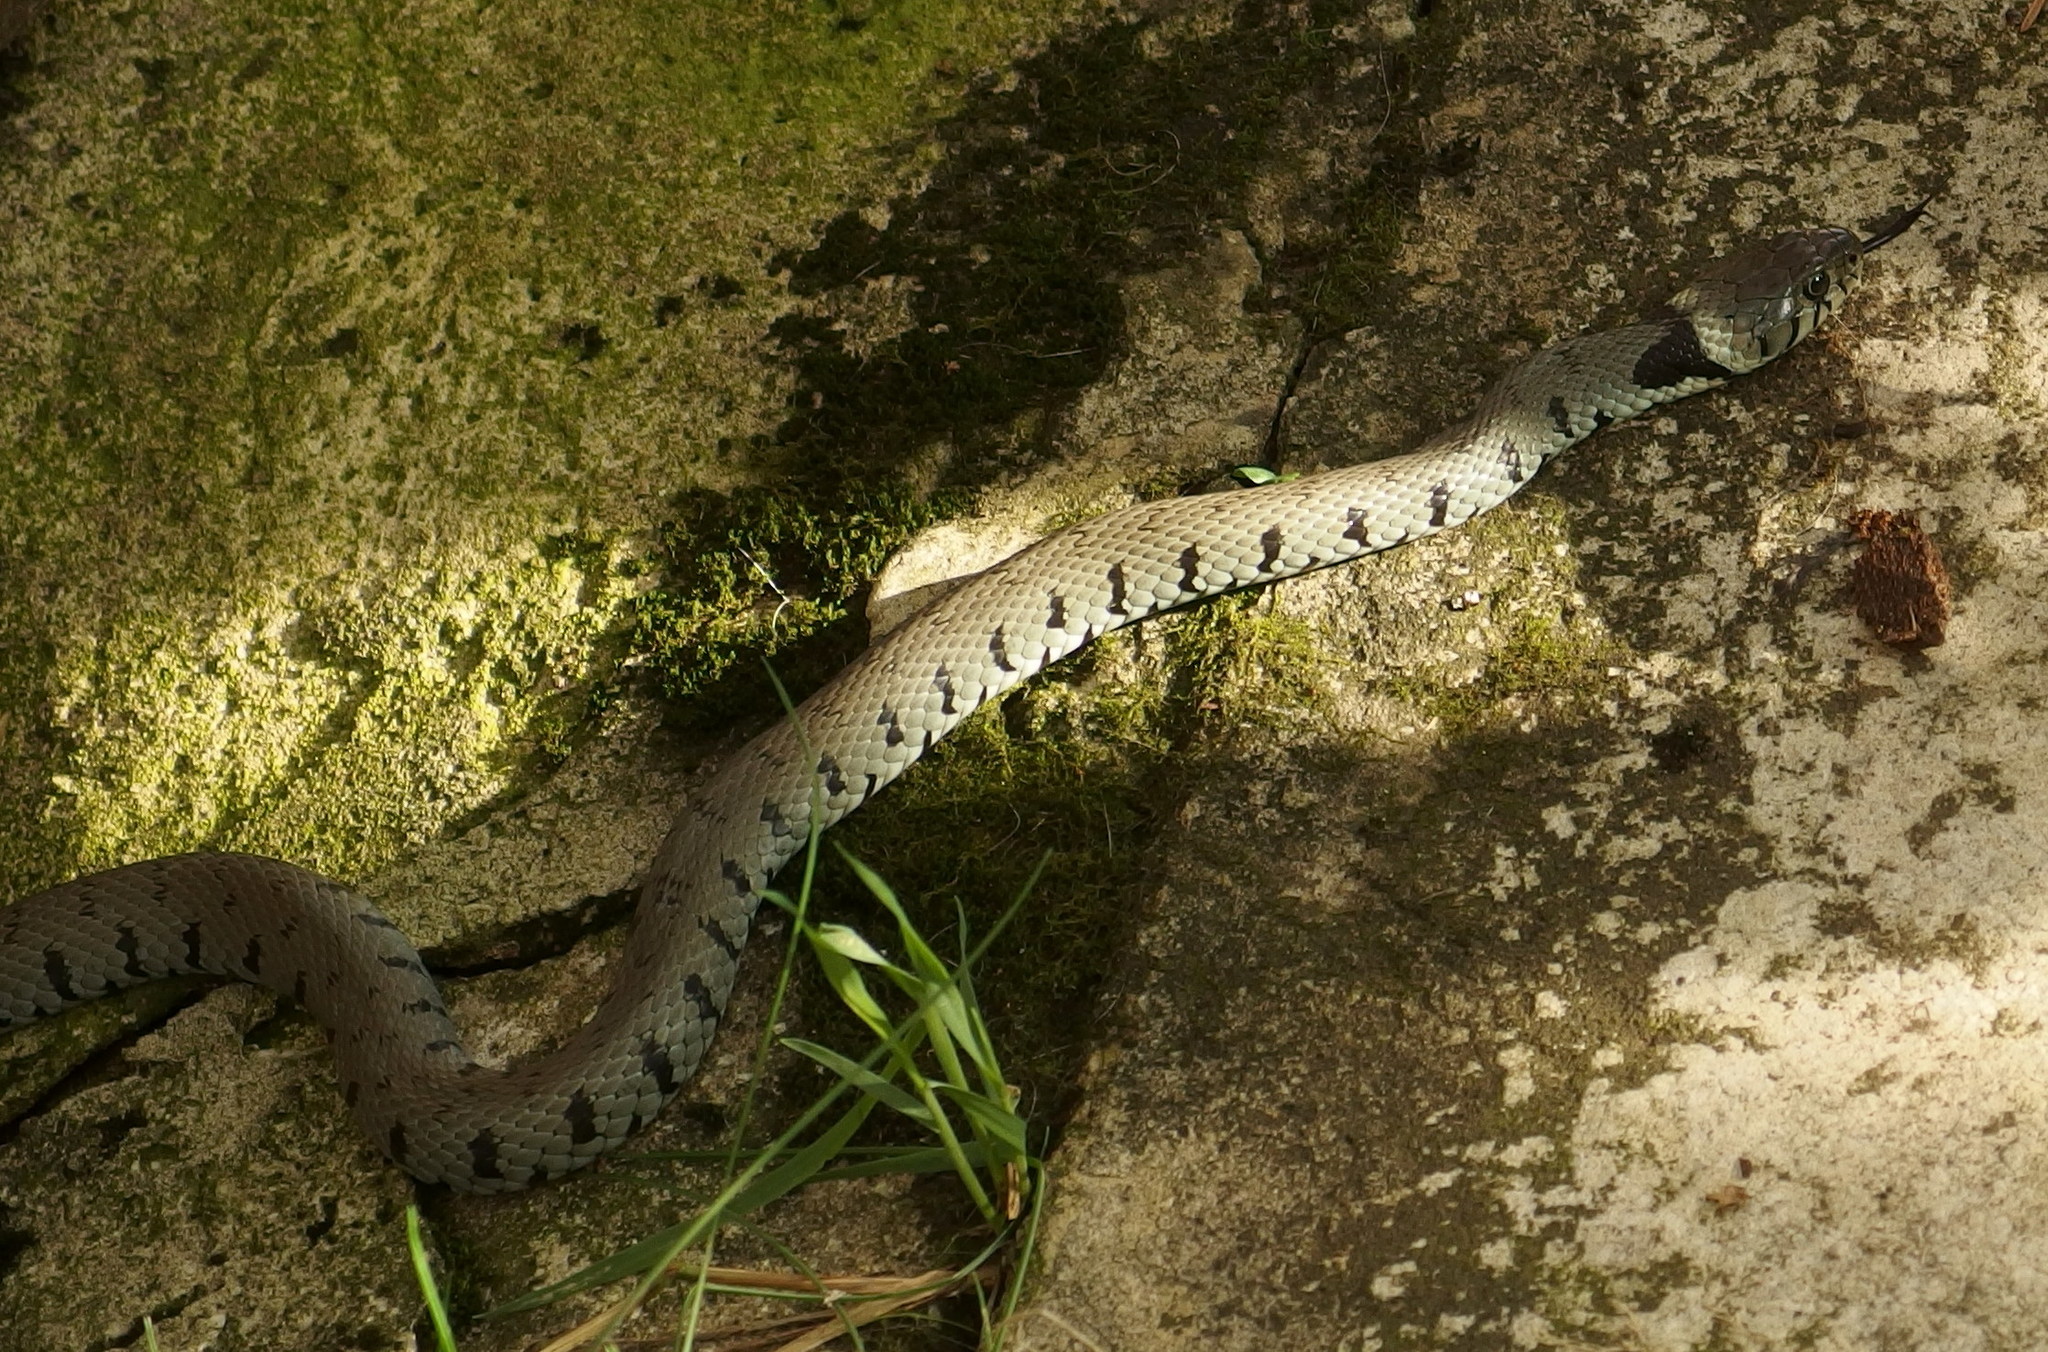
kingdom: Animalia
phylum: Chordata
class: Squamata
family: Colubridae
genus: Natrix
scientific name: Natrix helvetica
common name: Banded grass snake
